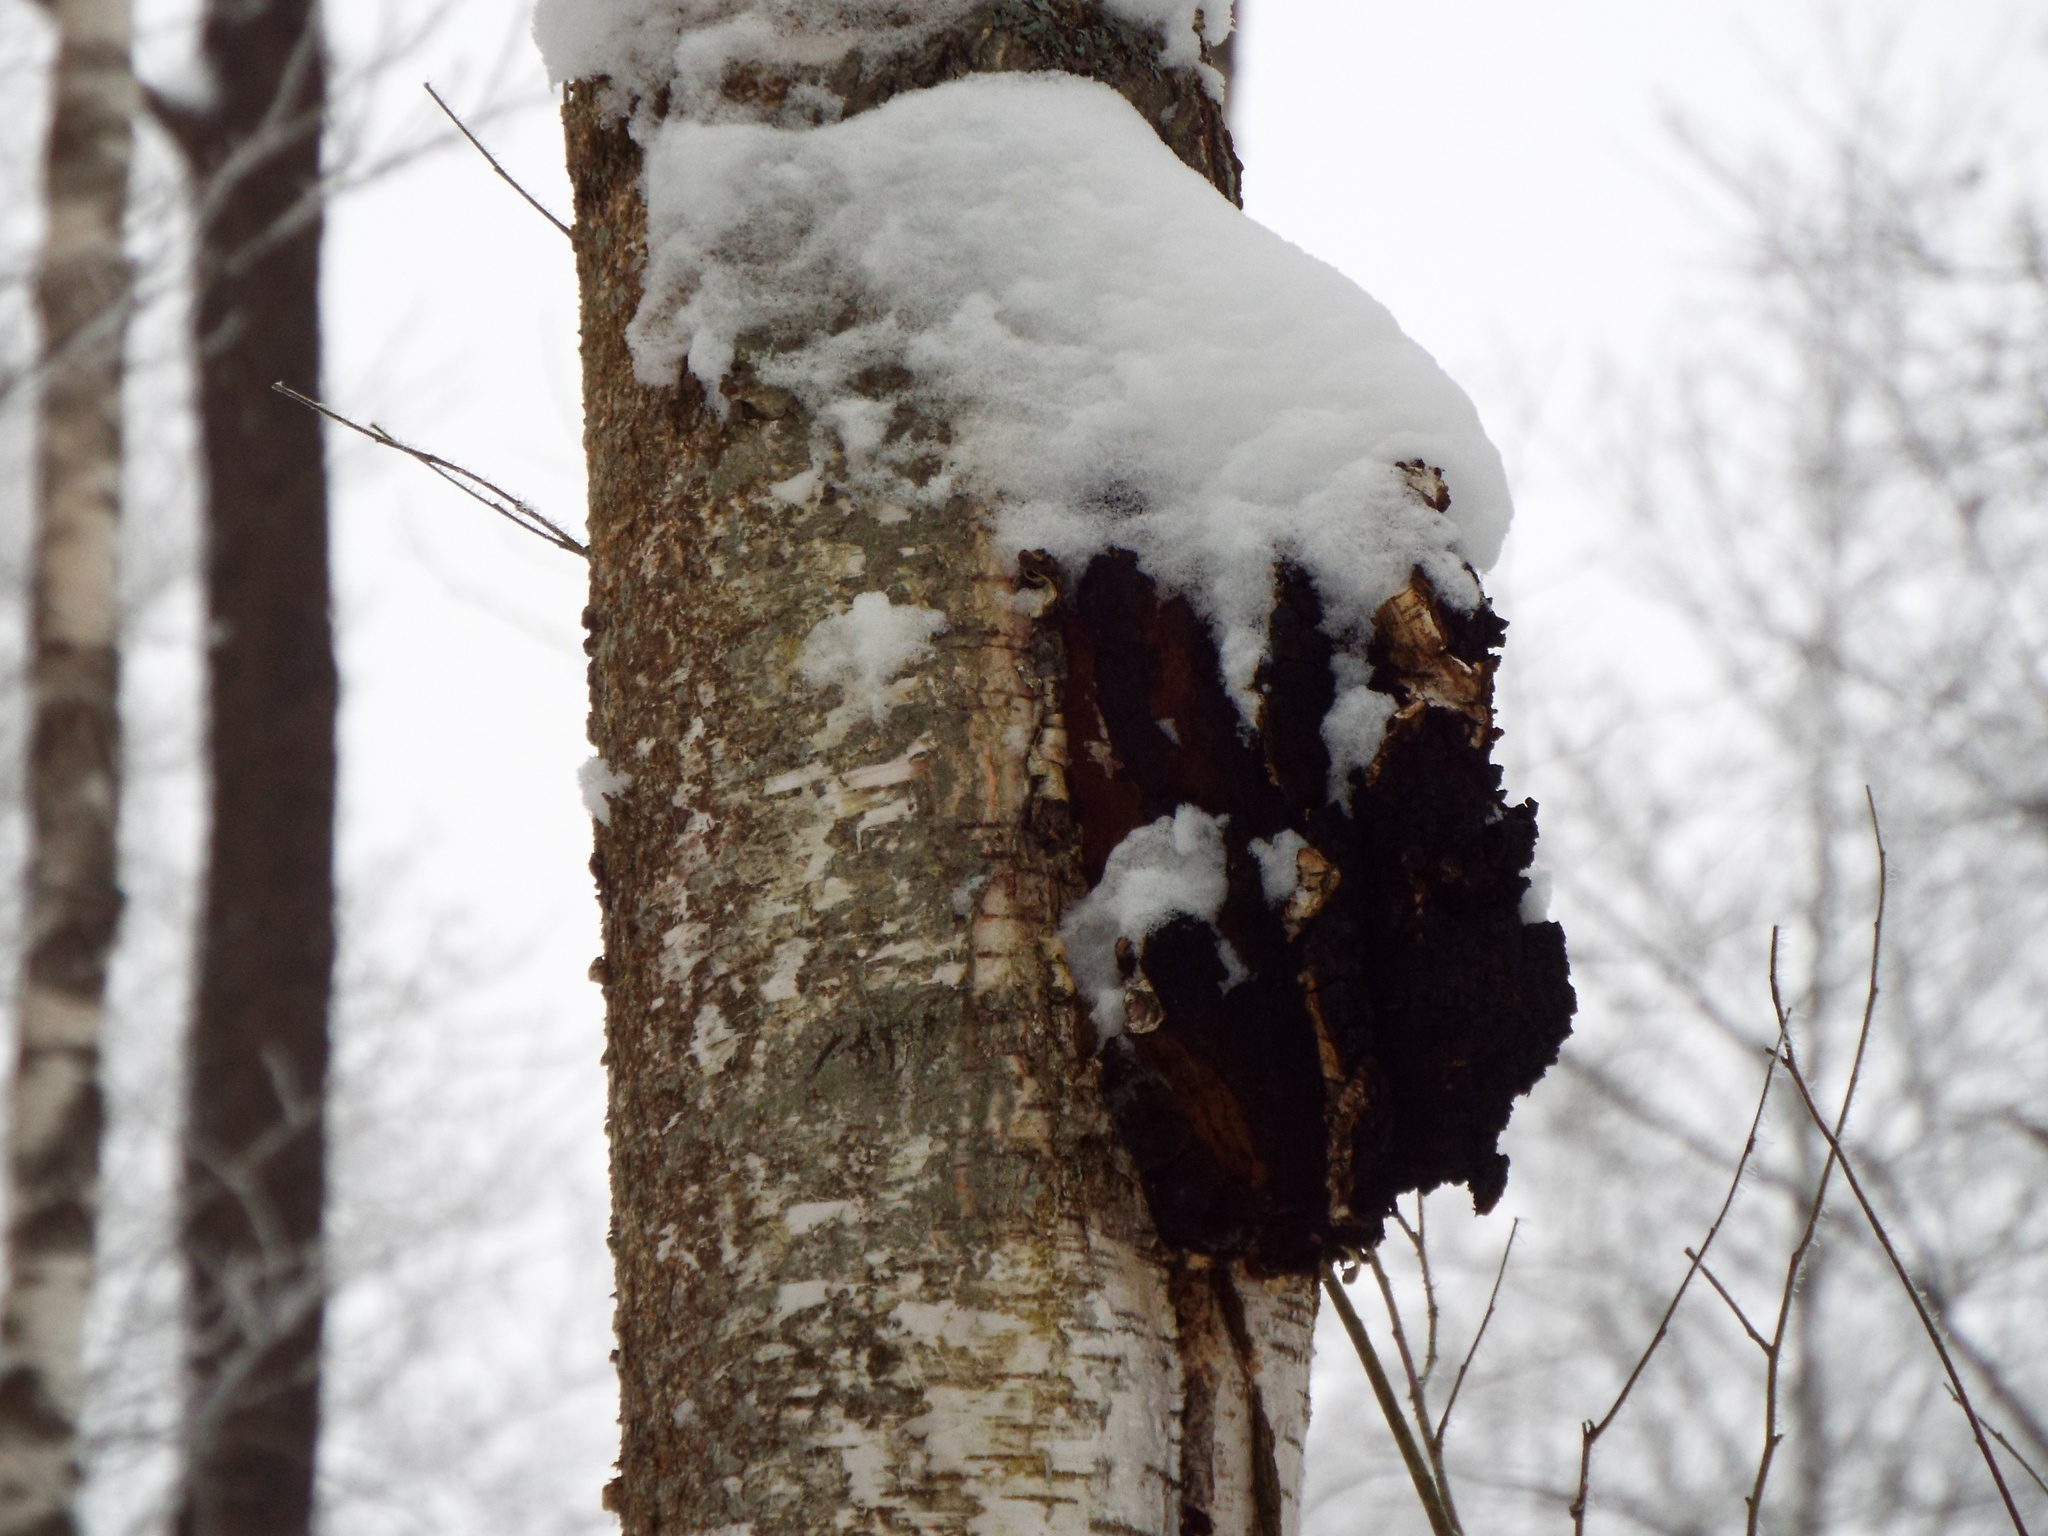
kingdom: Fungi
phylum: Basidiomycota
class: Agaricomycetes
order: Hymenochaetales
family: Hymenochaetaceae
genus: Inonotus
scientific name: Inonotus obliquus
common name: Chaga
